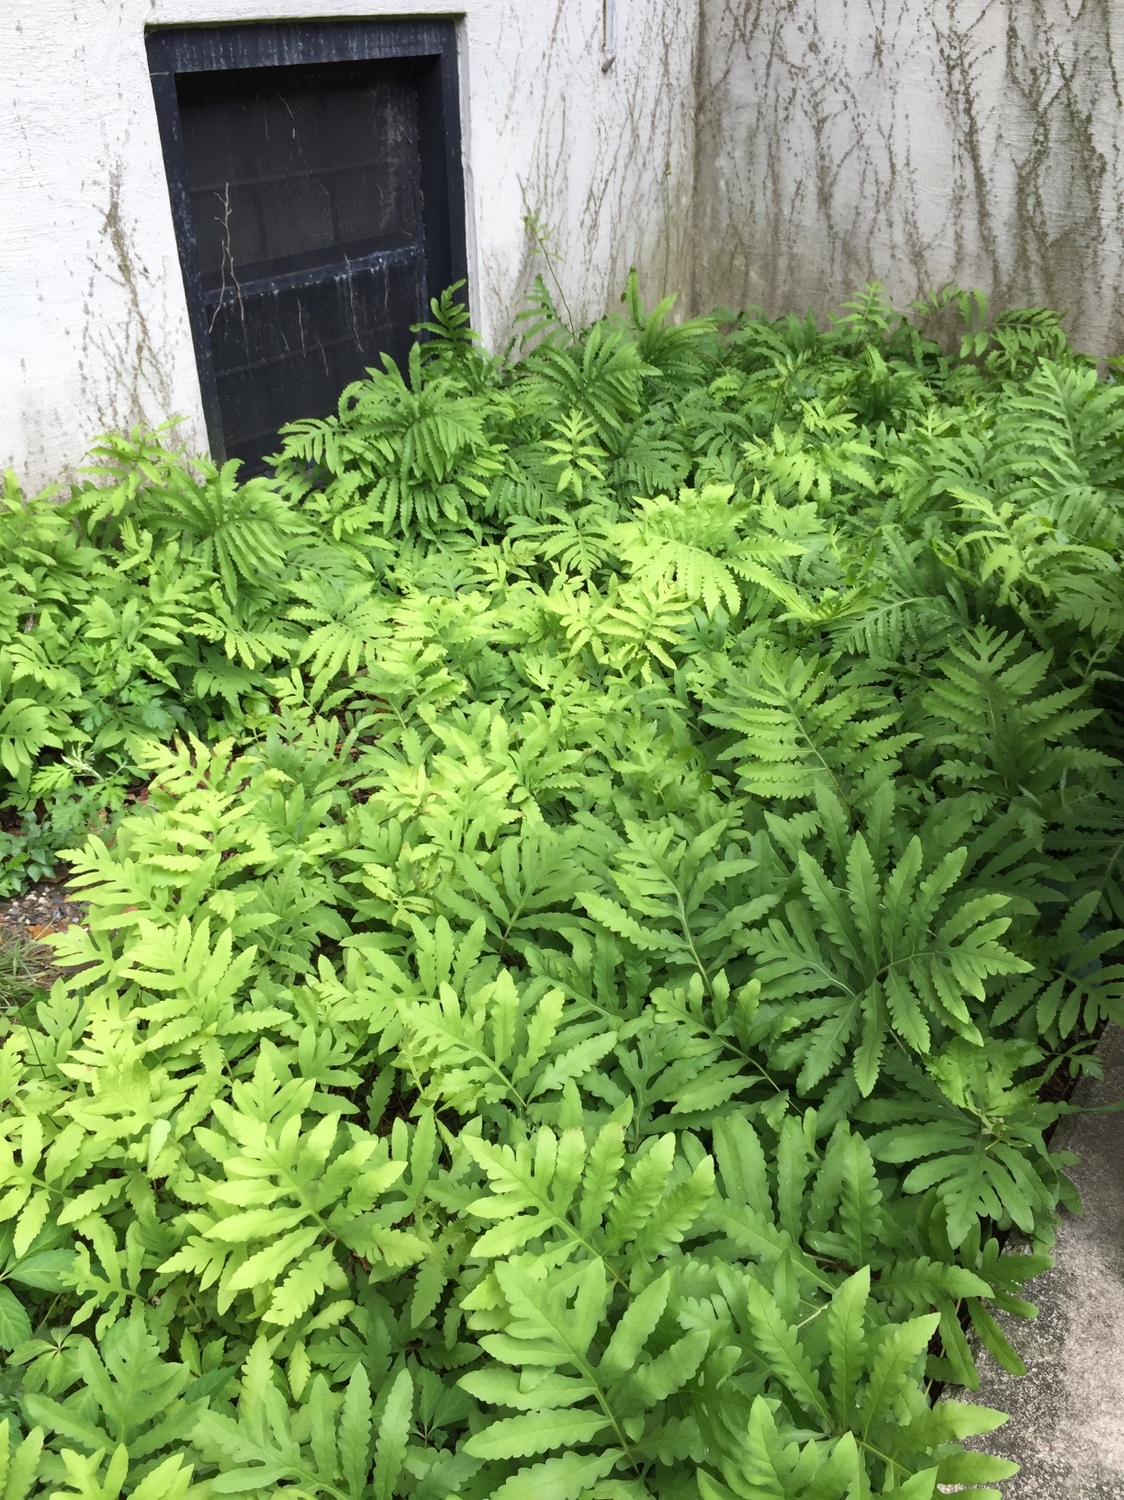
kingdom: Plantae
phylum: Tracheophyta
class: Polypodiopsida
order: Polypodiales
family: Onocleaceae
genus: Onoclea
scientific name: Onoclea sensibilis
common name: Sensitive fern
